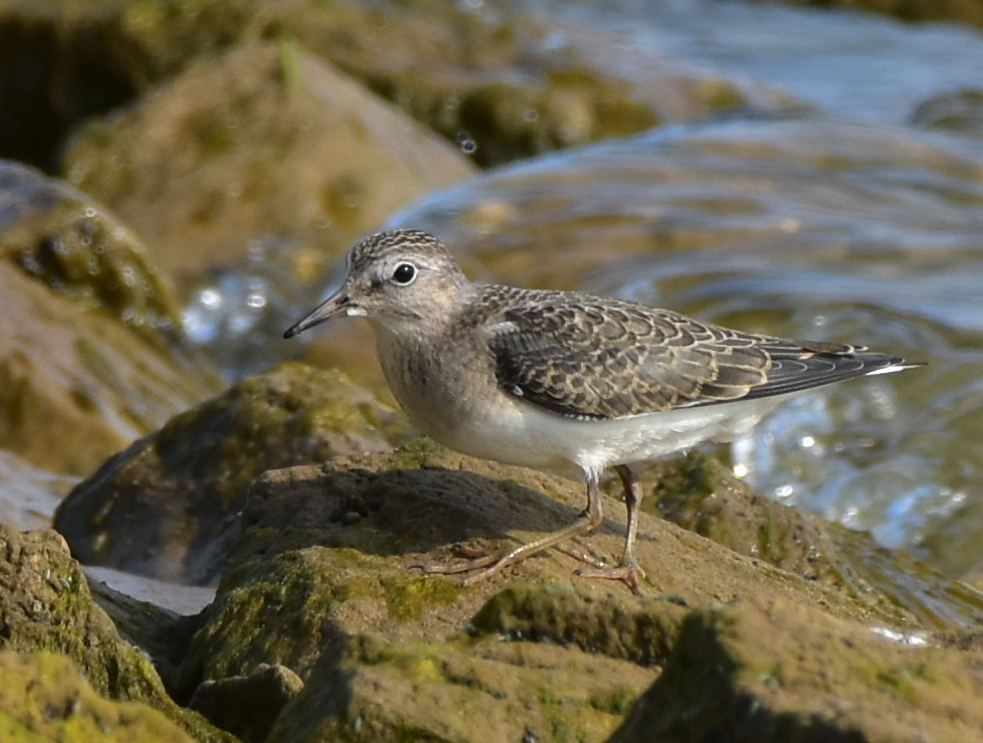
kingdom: Animalia
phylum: Chordata
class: Aves
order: Charadriiformes
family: Scolopacidae
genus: Calidris
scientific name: Calidris temminckii
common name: Temminck's stint
